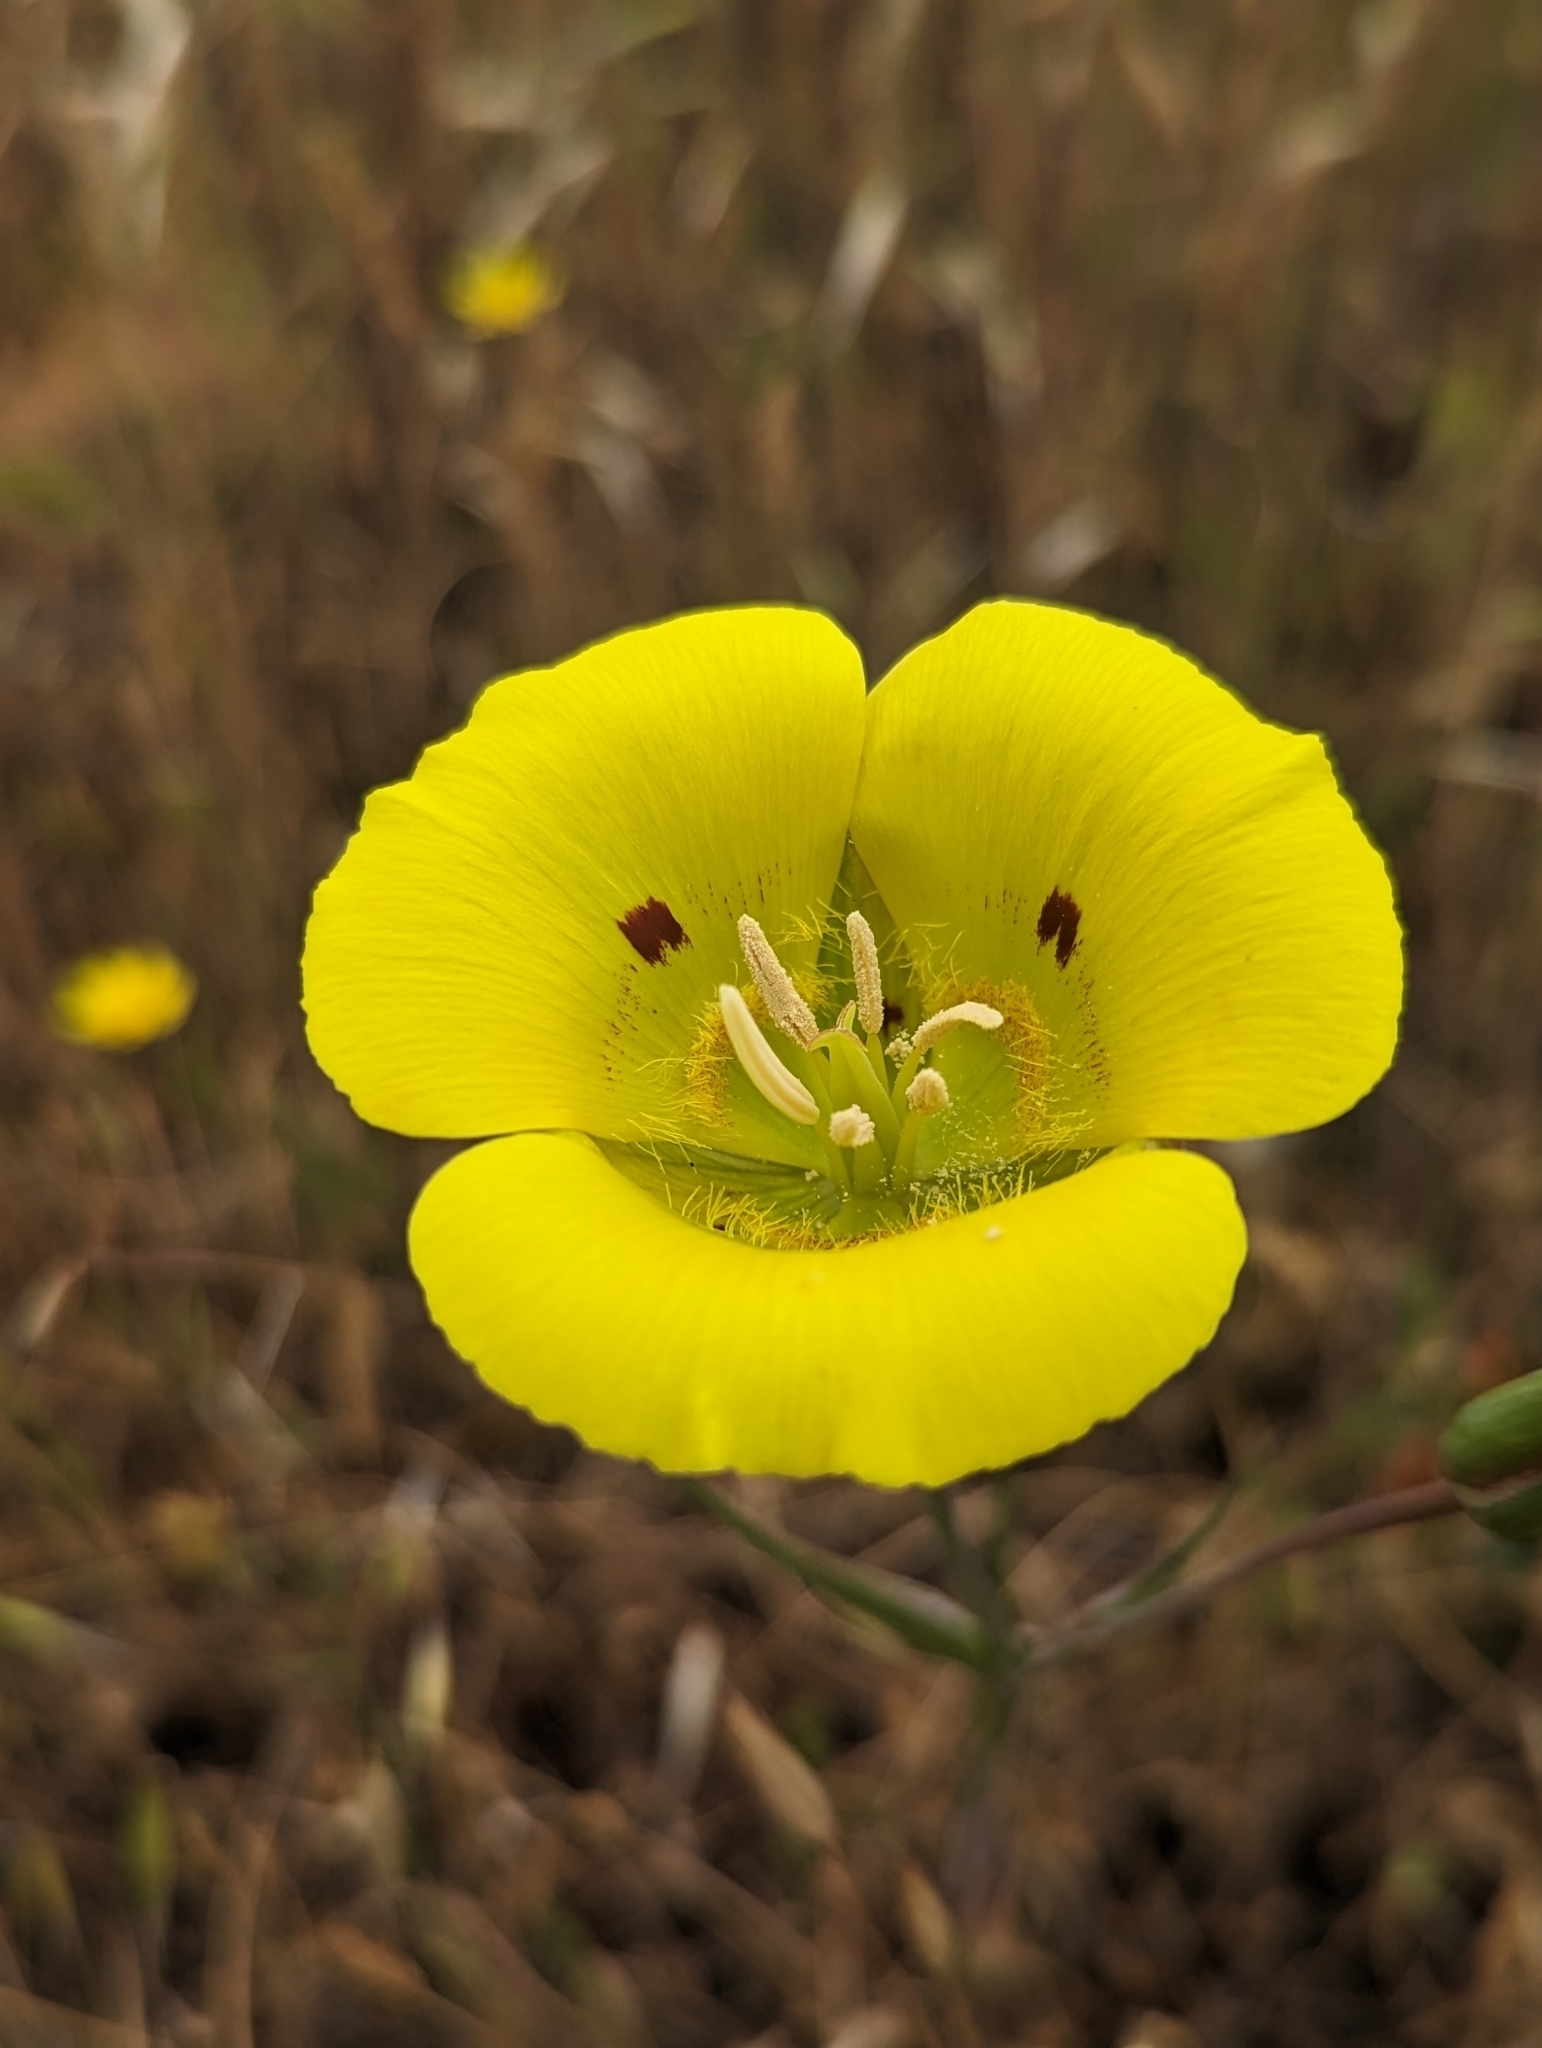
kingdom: Plantae
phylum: Tracheophyta
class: Liliopsida
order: Liliales
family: Liliaceae
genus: Calochortus
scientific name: Calochortus luteus
